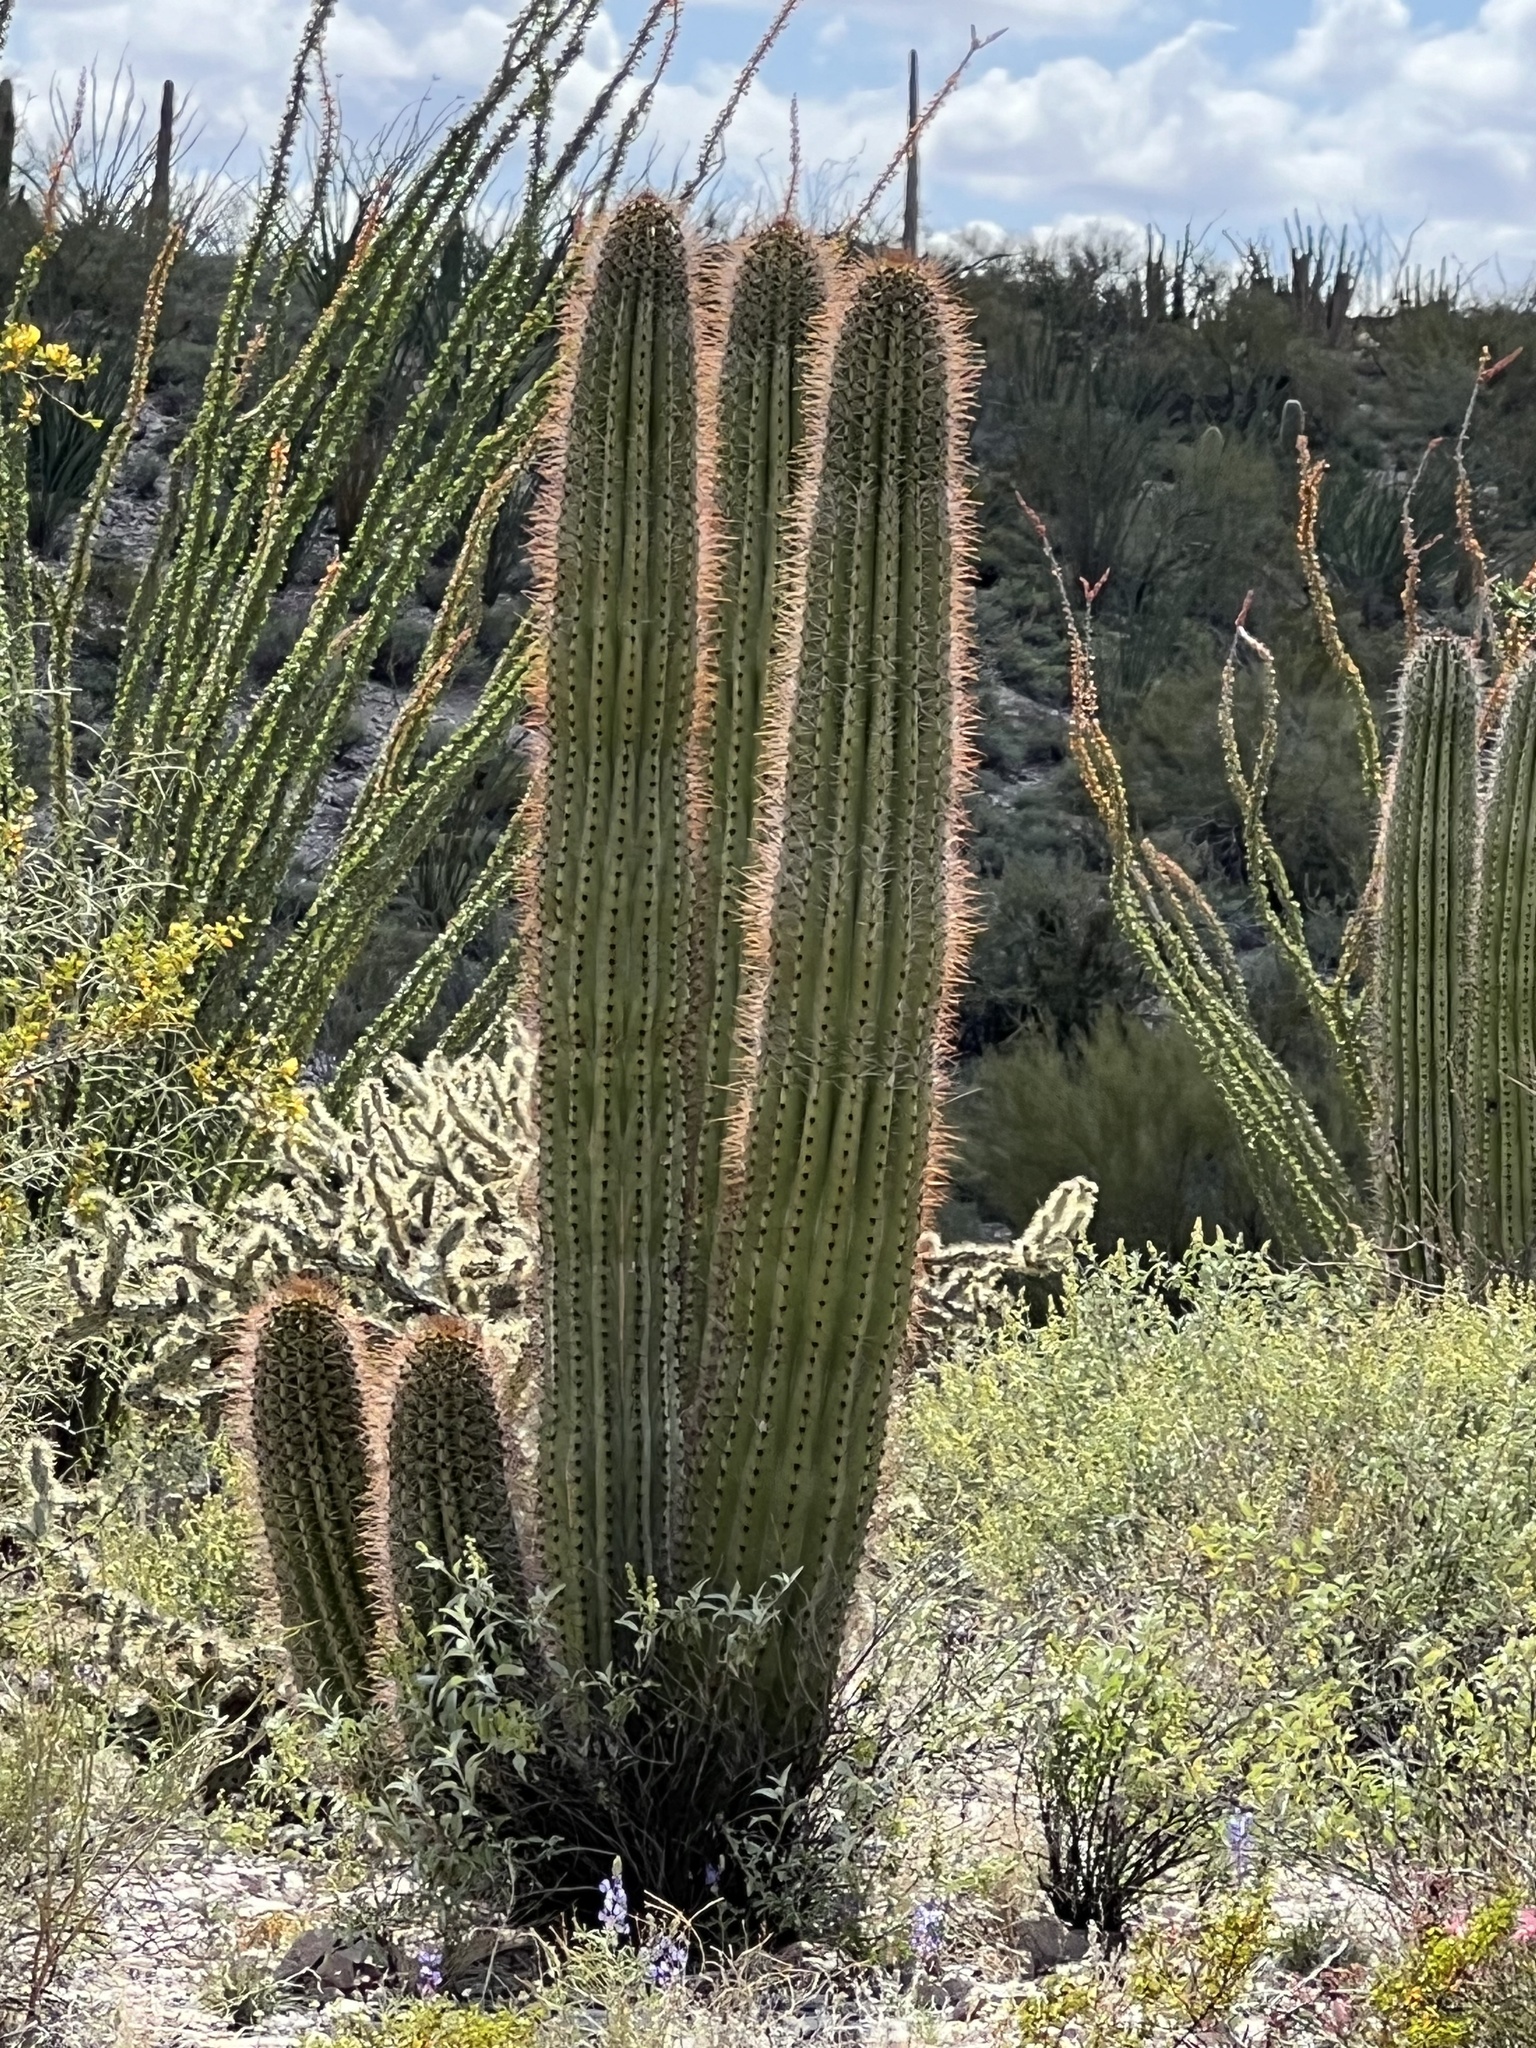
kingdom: Plantae
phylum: Tracheophyta
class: Magnoliopsida
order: Caryophyllales
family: Cactaceae
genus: Stenocereus
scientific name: Stenocereus thurberi
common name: Organ pipe cactus
